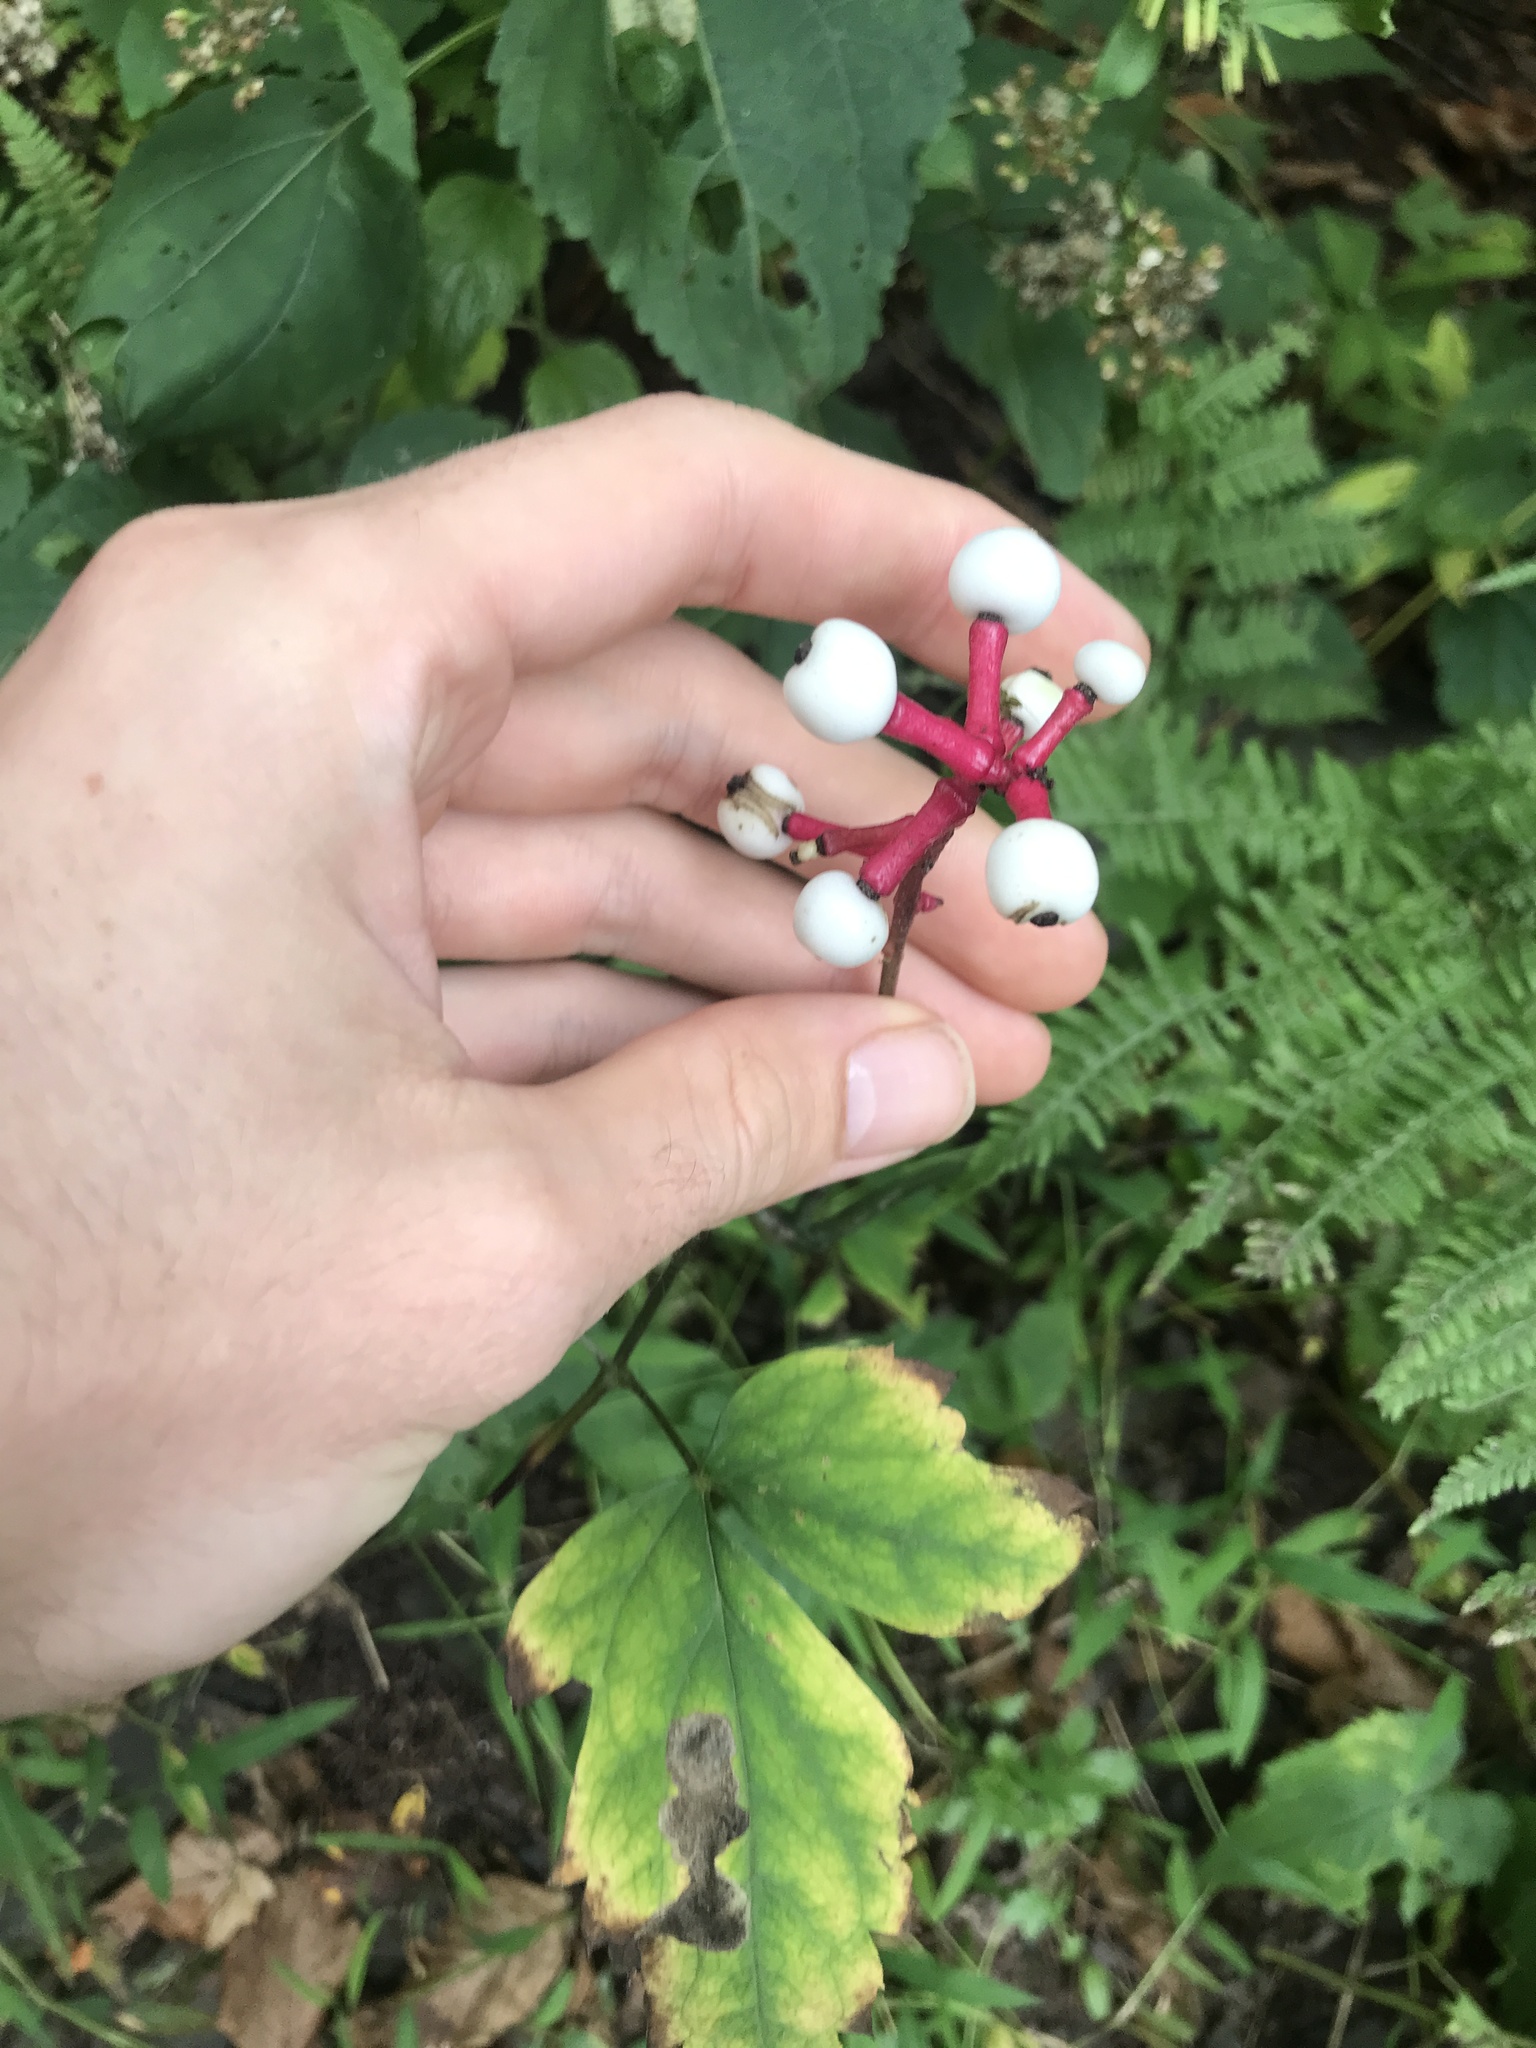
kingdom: Plantae
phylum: Tracheophyta
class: Magnoliopsida
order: Ranunculales
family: Ranunculaceae
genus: Actaea
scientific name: Actaea pachypoda
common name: Doll's-eyes
